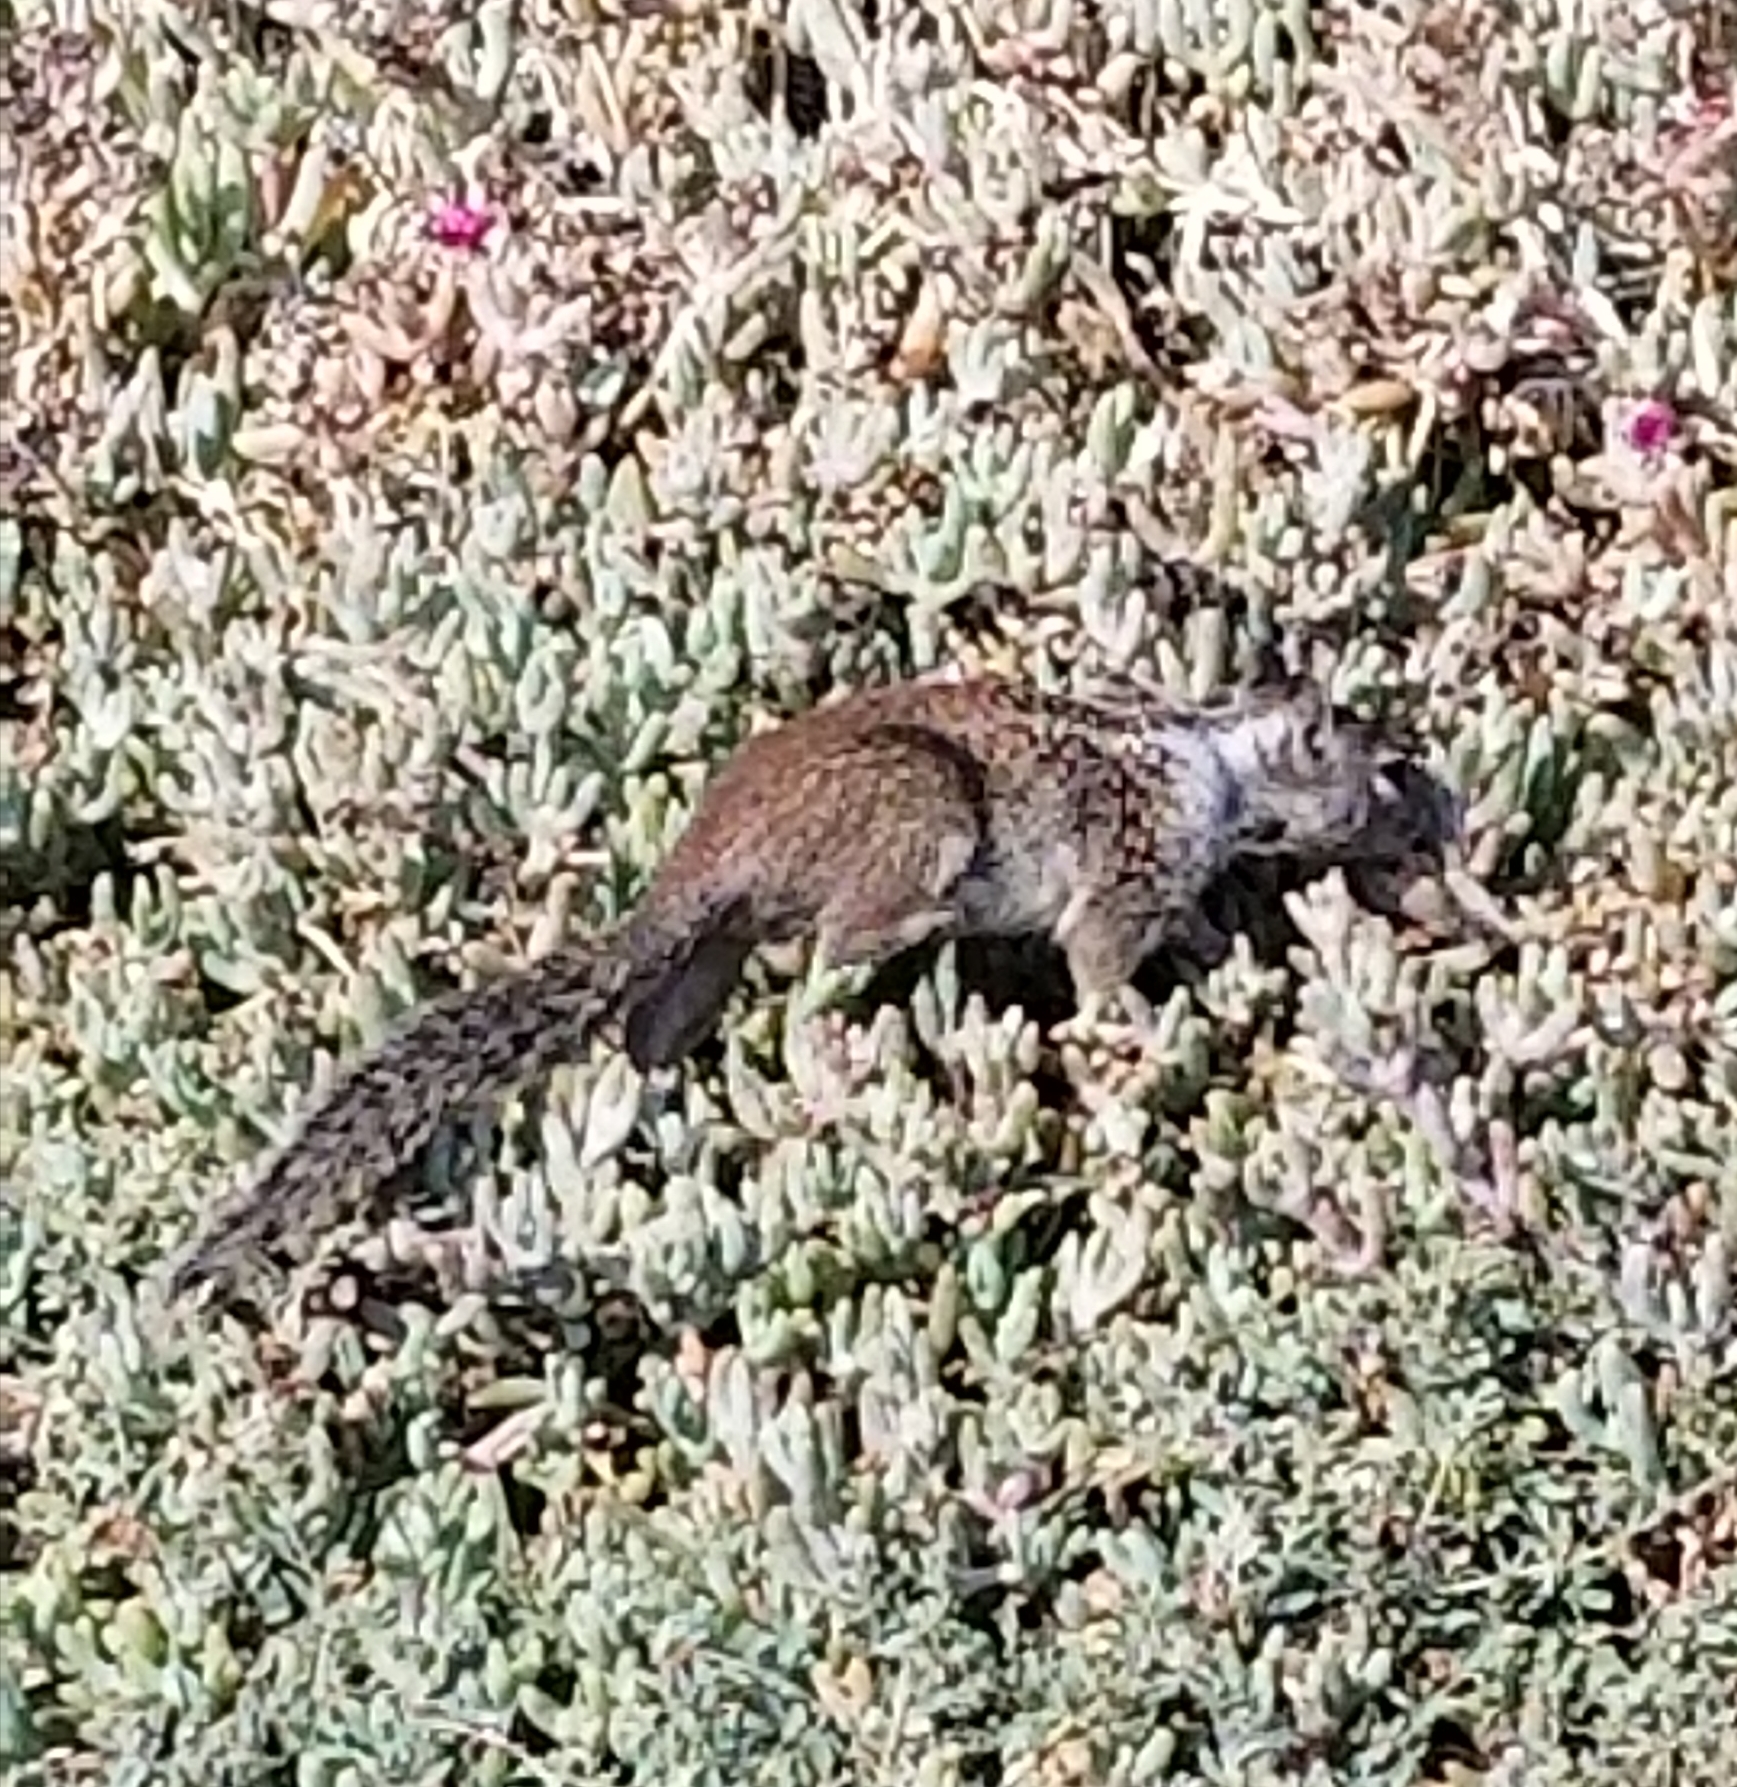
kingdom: Animalia
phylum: Chordata
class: Mammalia
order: Rodentia
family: Sciuridae
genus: Otospermophilus
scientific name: Otospermophilus beecheyi
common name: California ground squirrel
